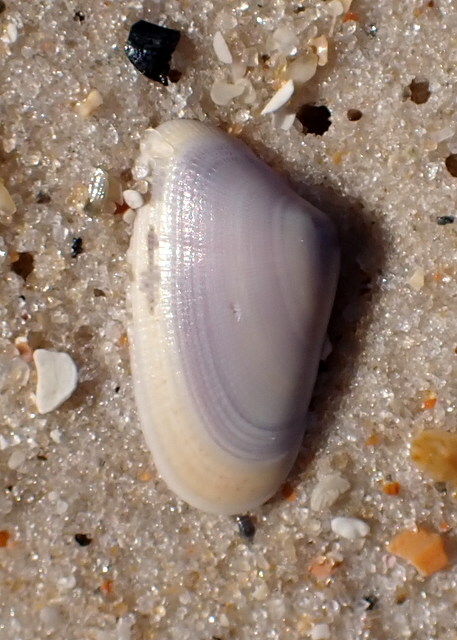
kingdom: Animalia
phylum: Mollusca
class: Bivalvia
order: Cardiida
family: Donacidae
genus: Donax
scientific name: Donax variabilis
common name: Butterfly shell
